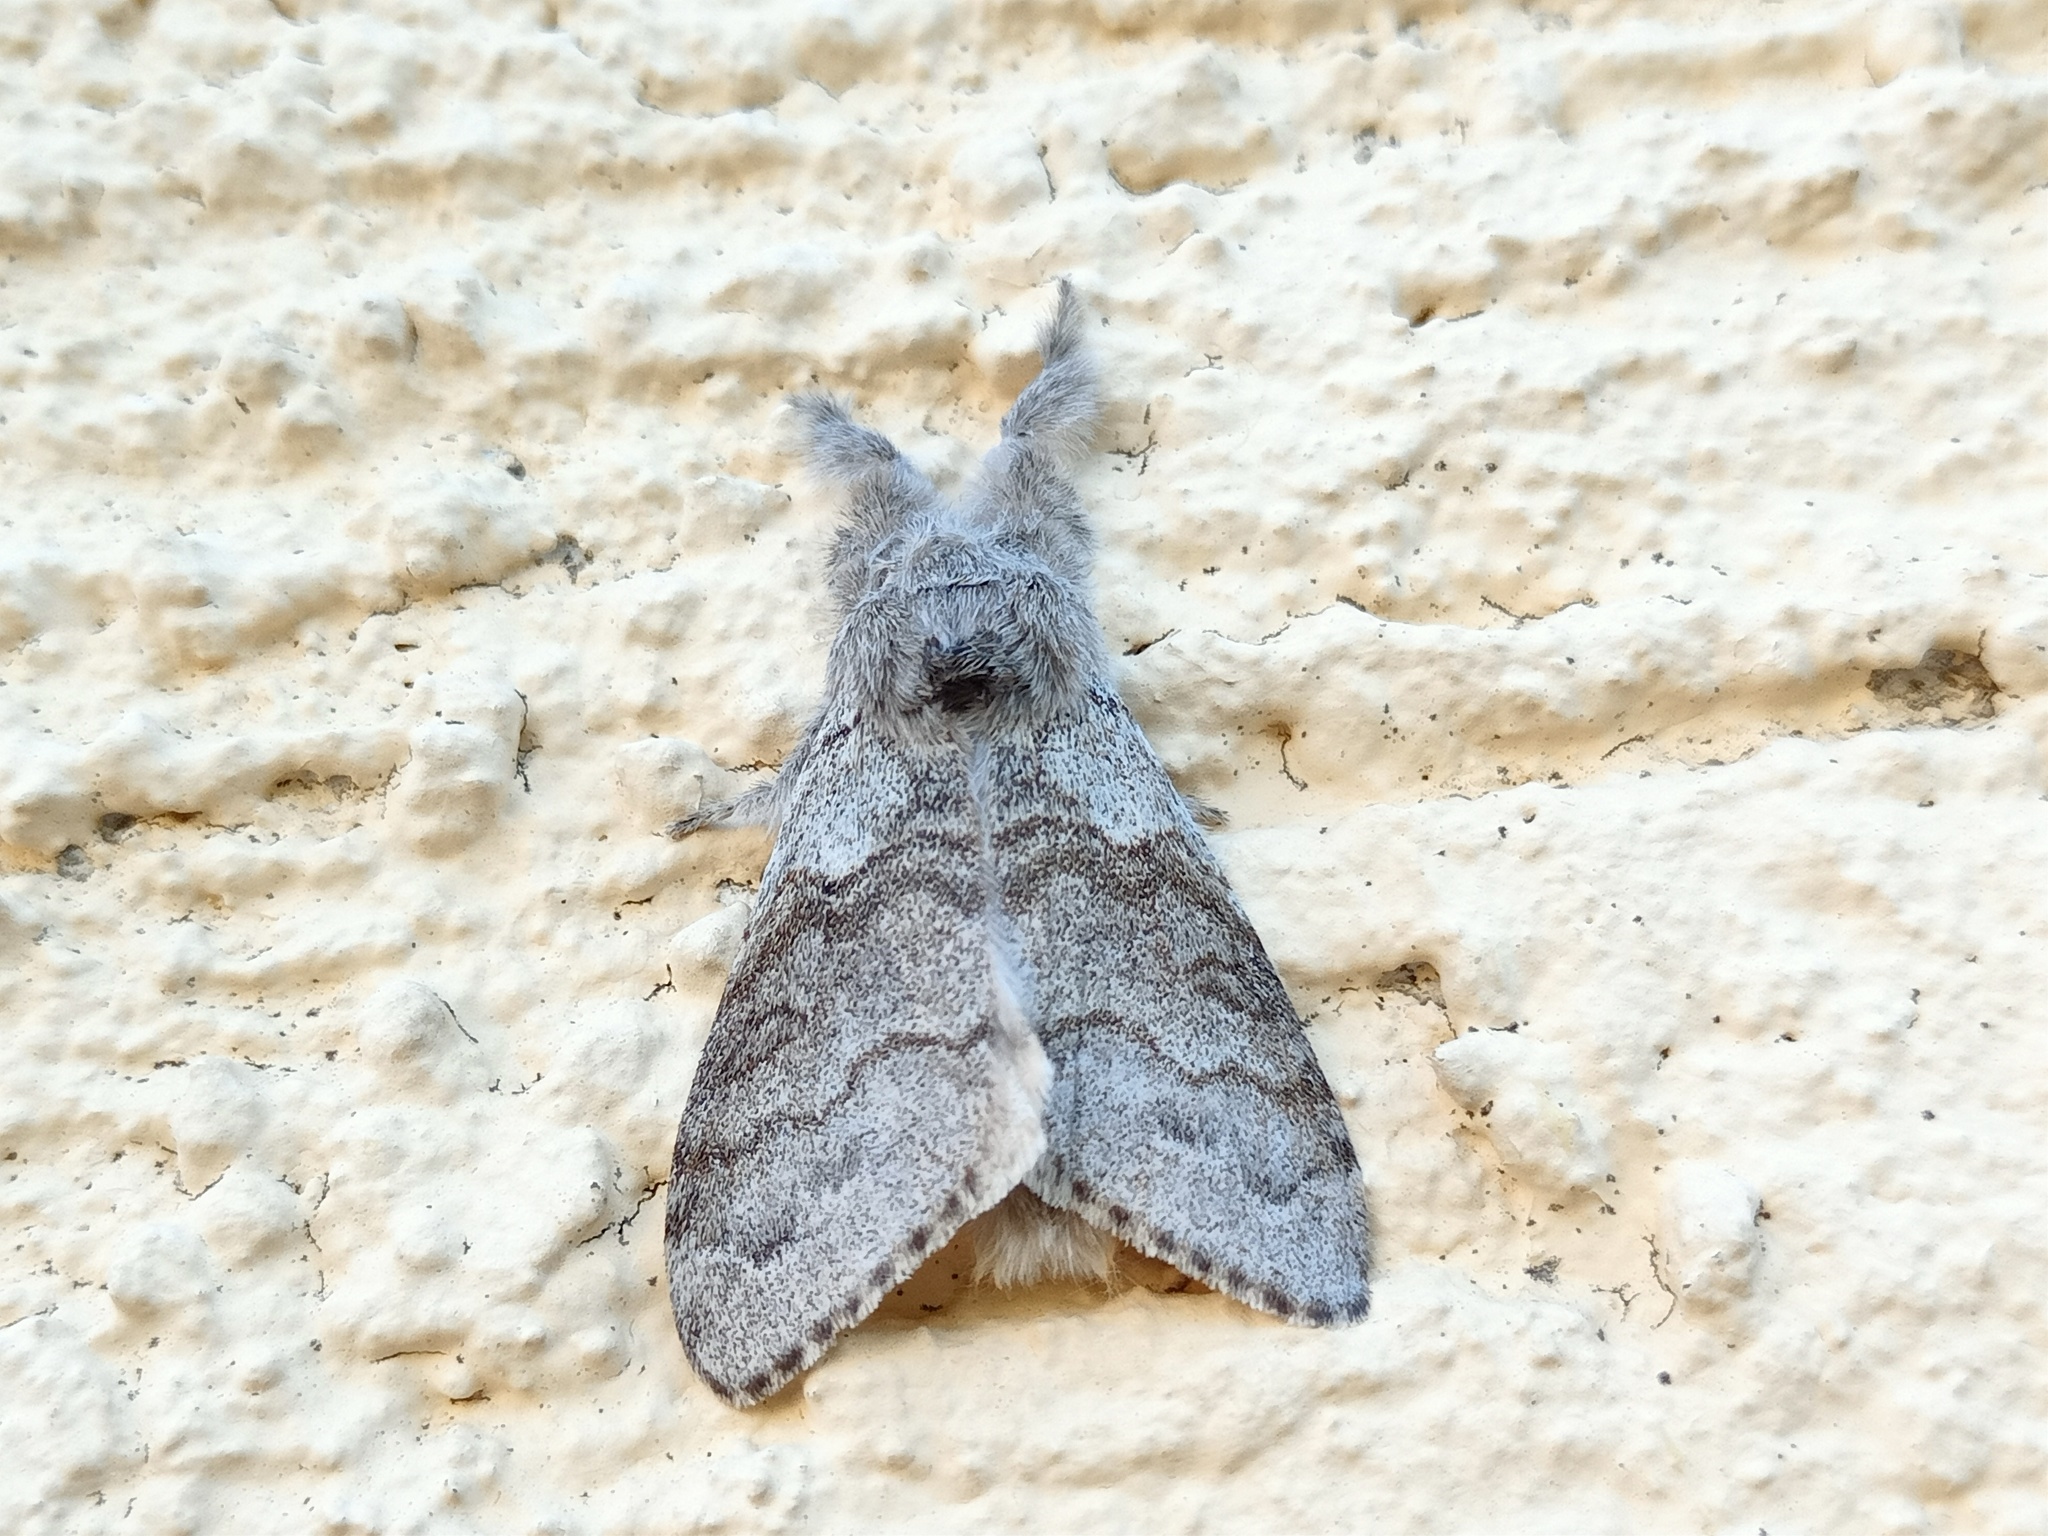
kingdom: Animalia
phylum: Arthropoda
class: Insecta
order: Lepidoptera
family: Erebidae
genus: Calliteara
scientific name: Calliteara pudibunda
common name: Pale tussock
